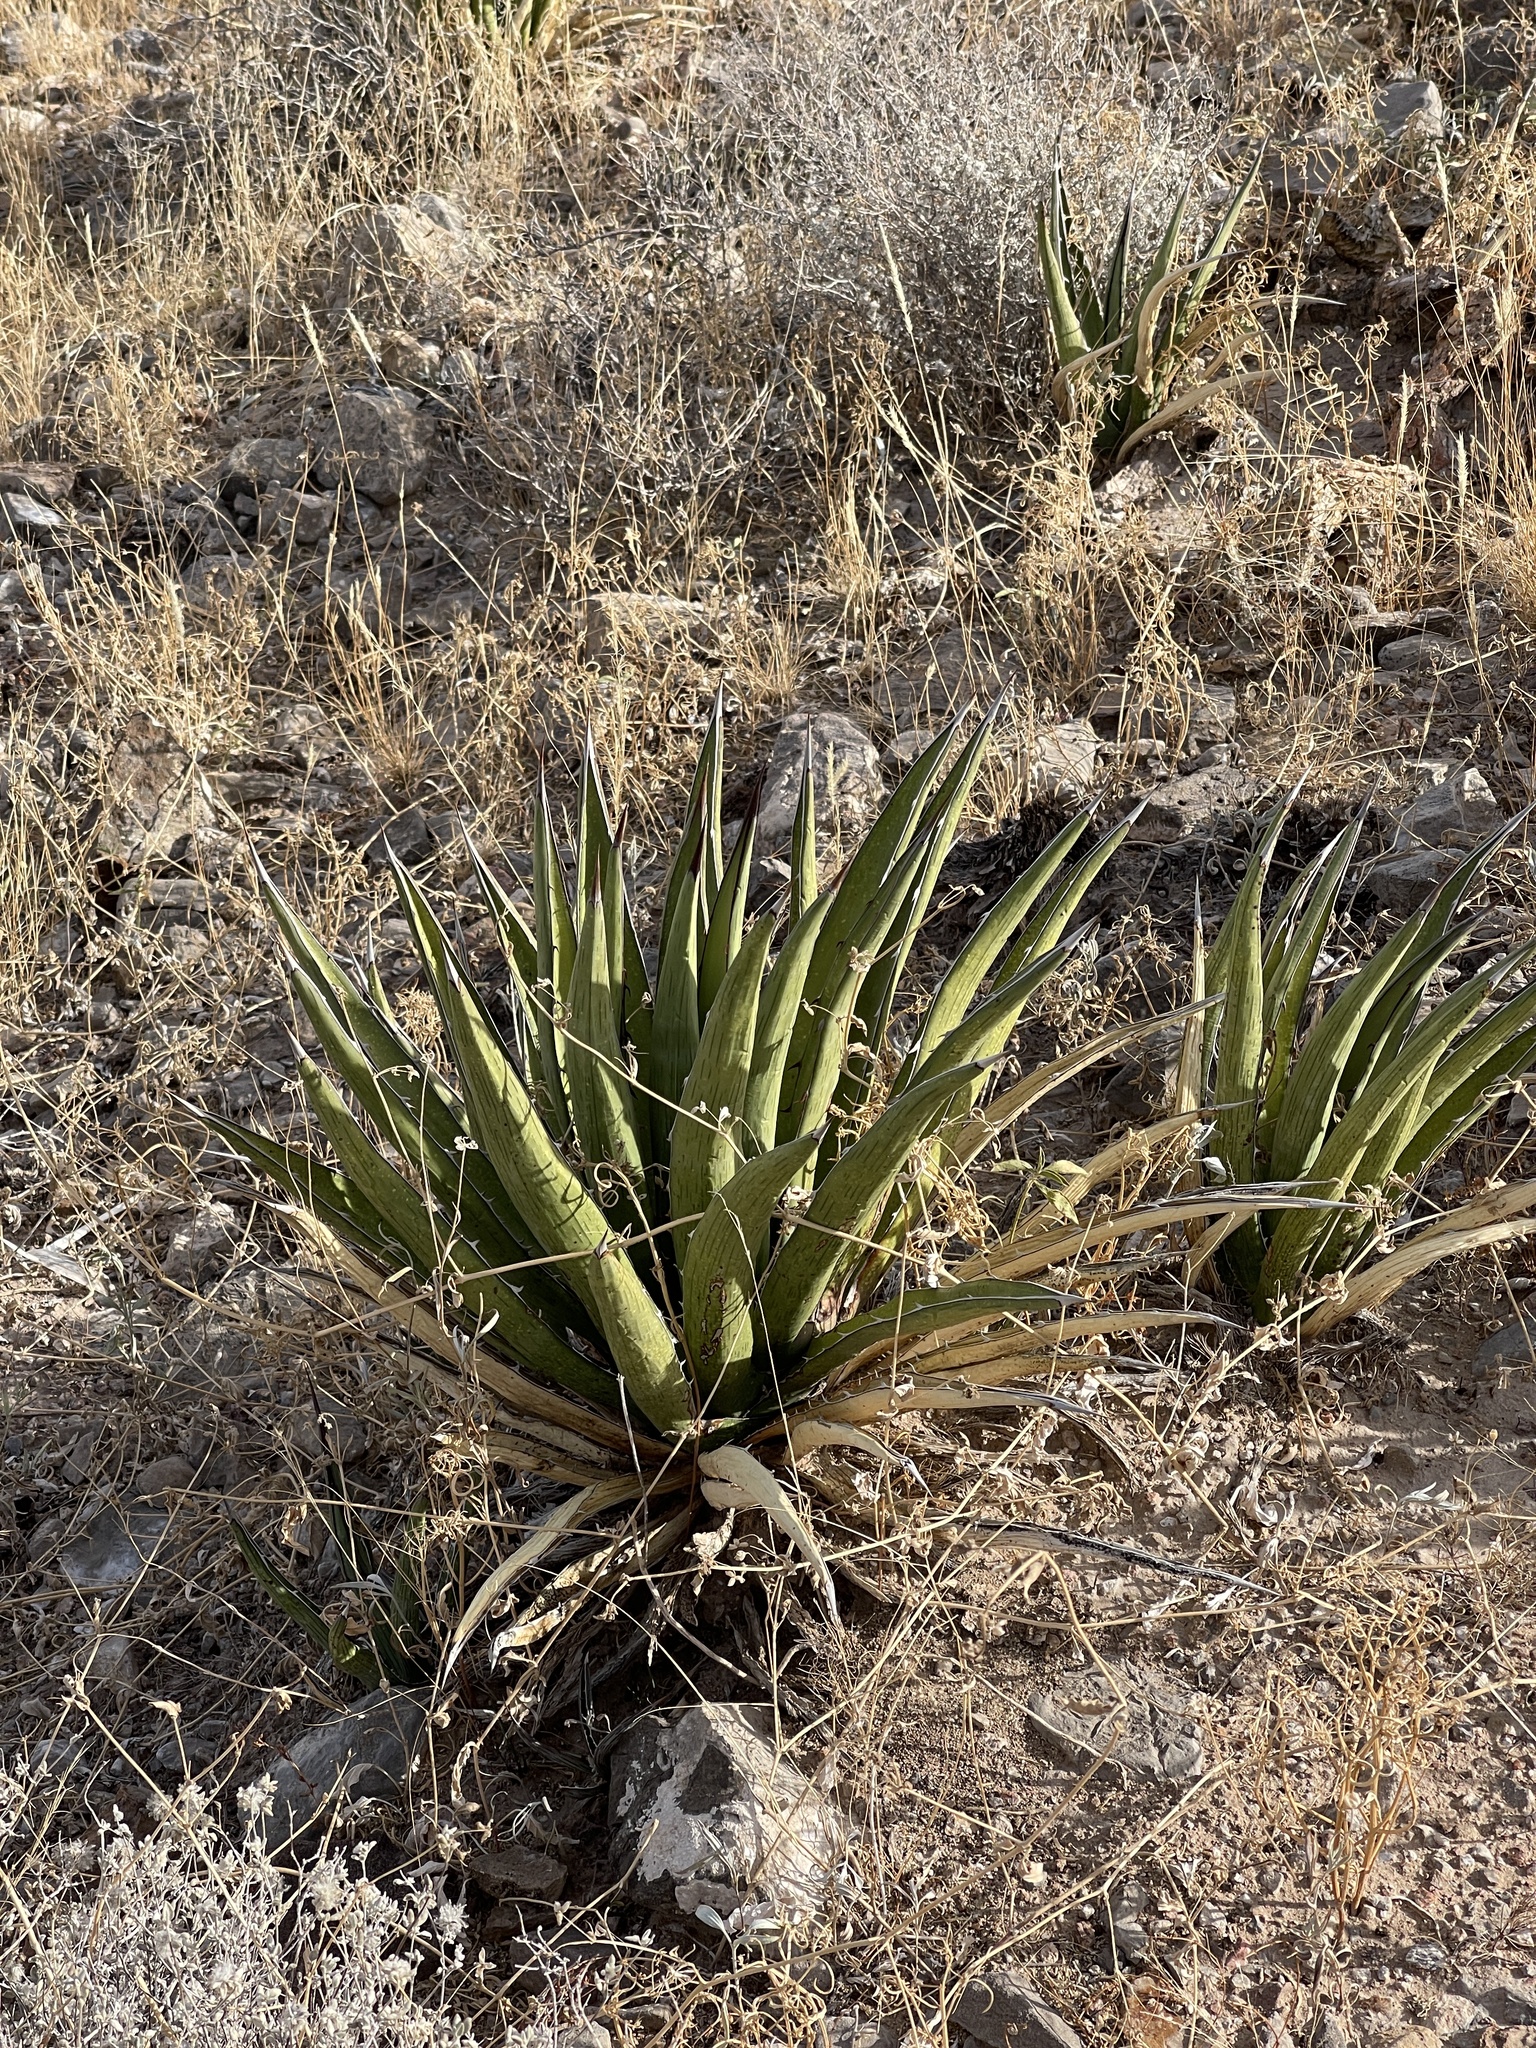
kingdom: Plantae
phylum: Tracheophyta
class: Liliopsida
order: Asparagales
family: Asparagaceae
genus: Agave
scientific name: Agave lechuguilla
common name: Lecheguilla agave
